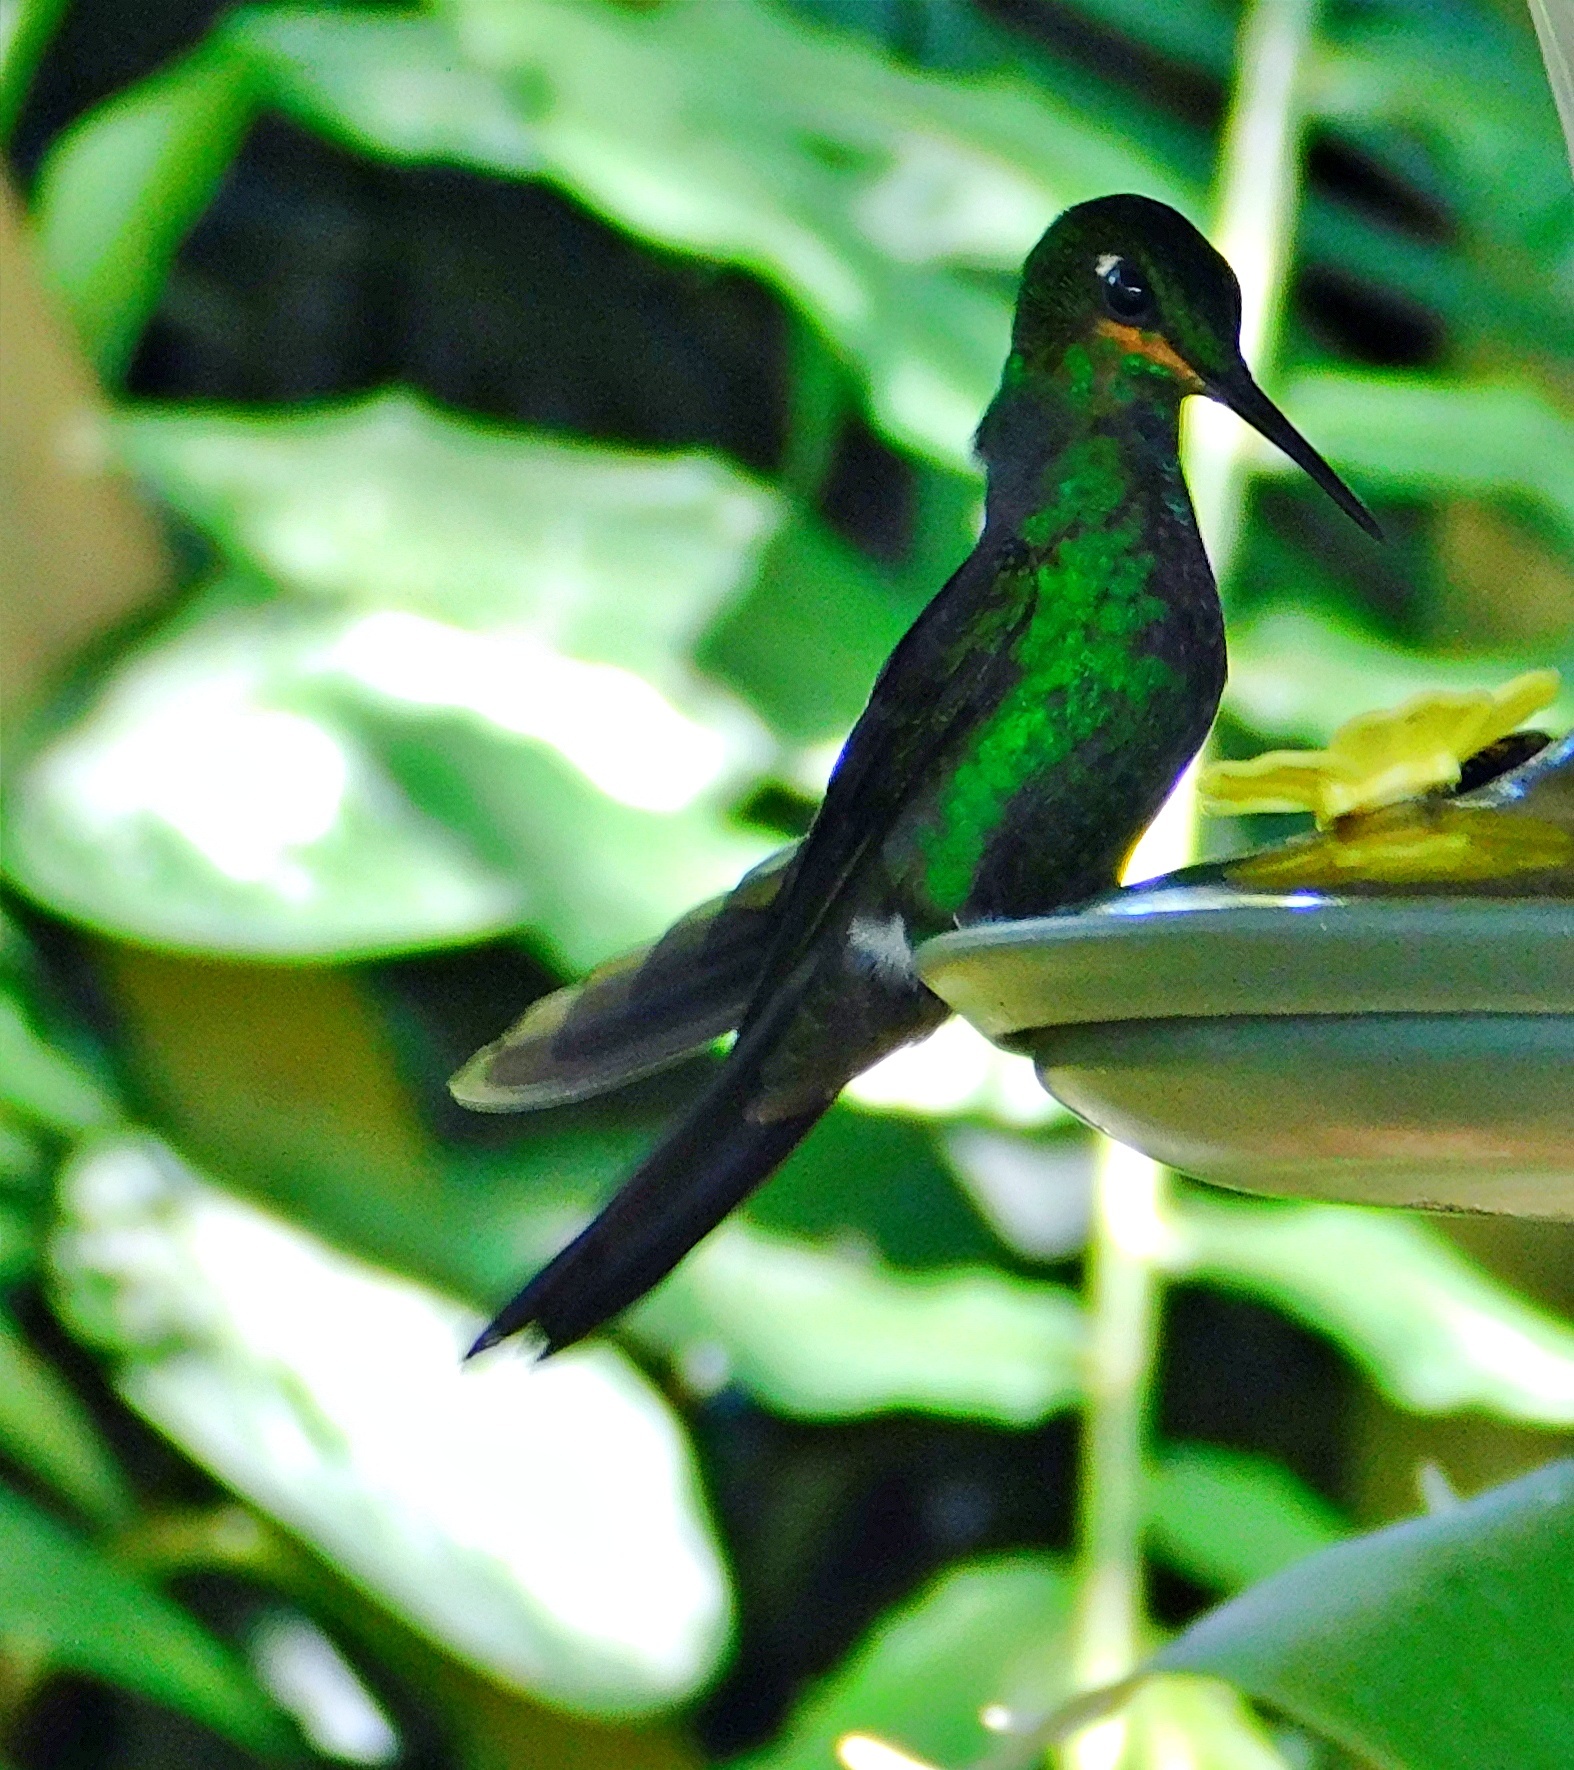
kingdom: Animalia
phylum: Chordata
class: Aves
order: Apodiformes
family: Trochilidae
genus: Heliodoxa
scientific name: Heliodoxa jacula
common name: Green-crowned brilliant
